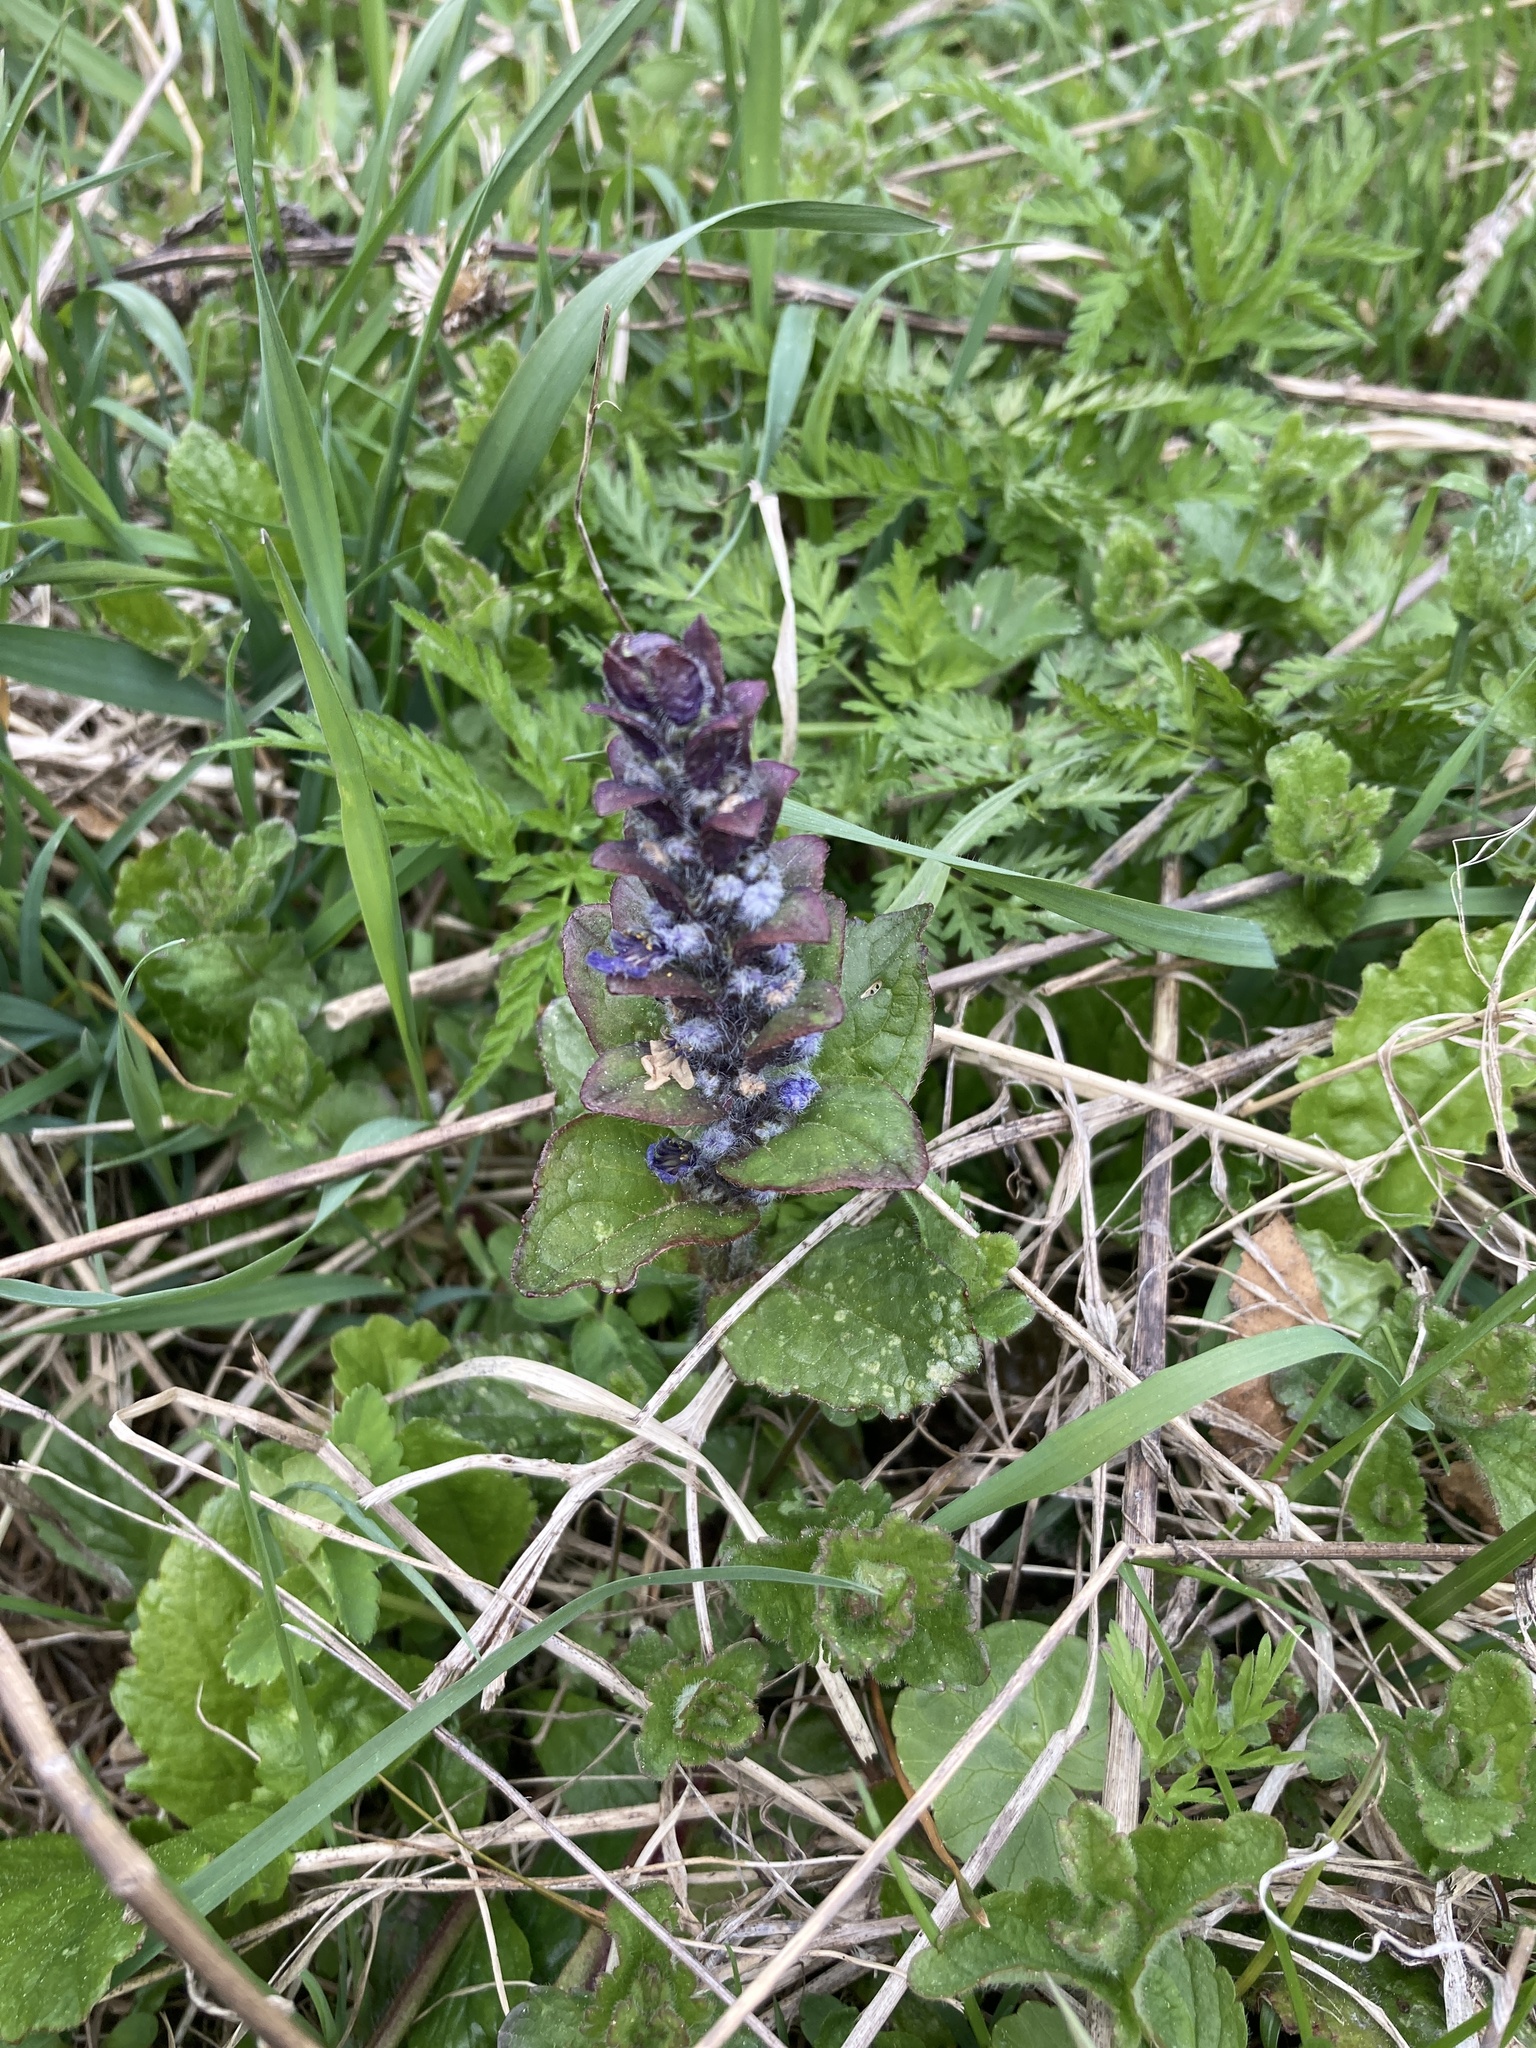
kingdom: Plantae
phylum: Tracheophyta
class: Magnoliopsida
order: Lamiales
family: Lamiaceae
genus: Ajuga
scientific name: Ajuga reptans
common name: Bugle
